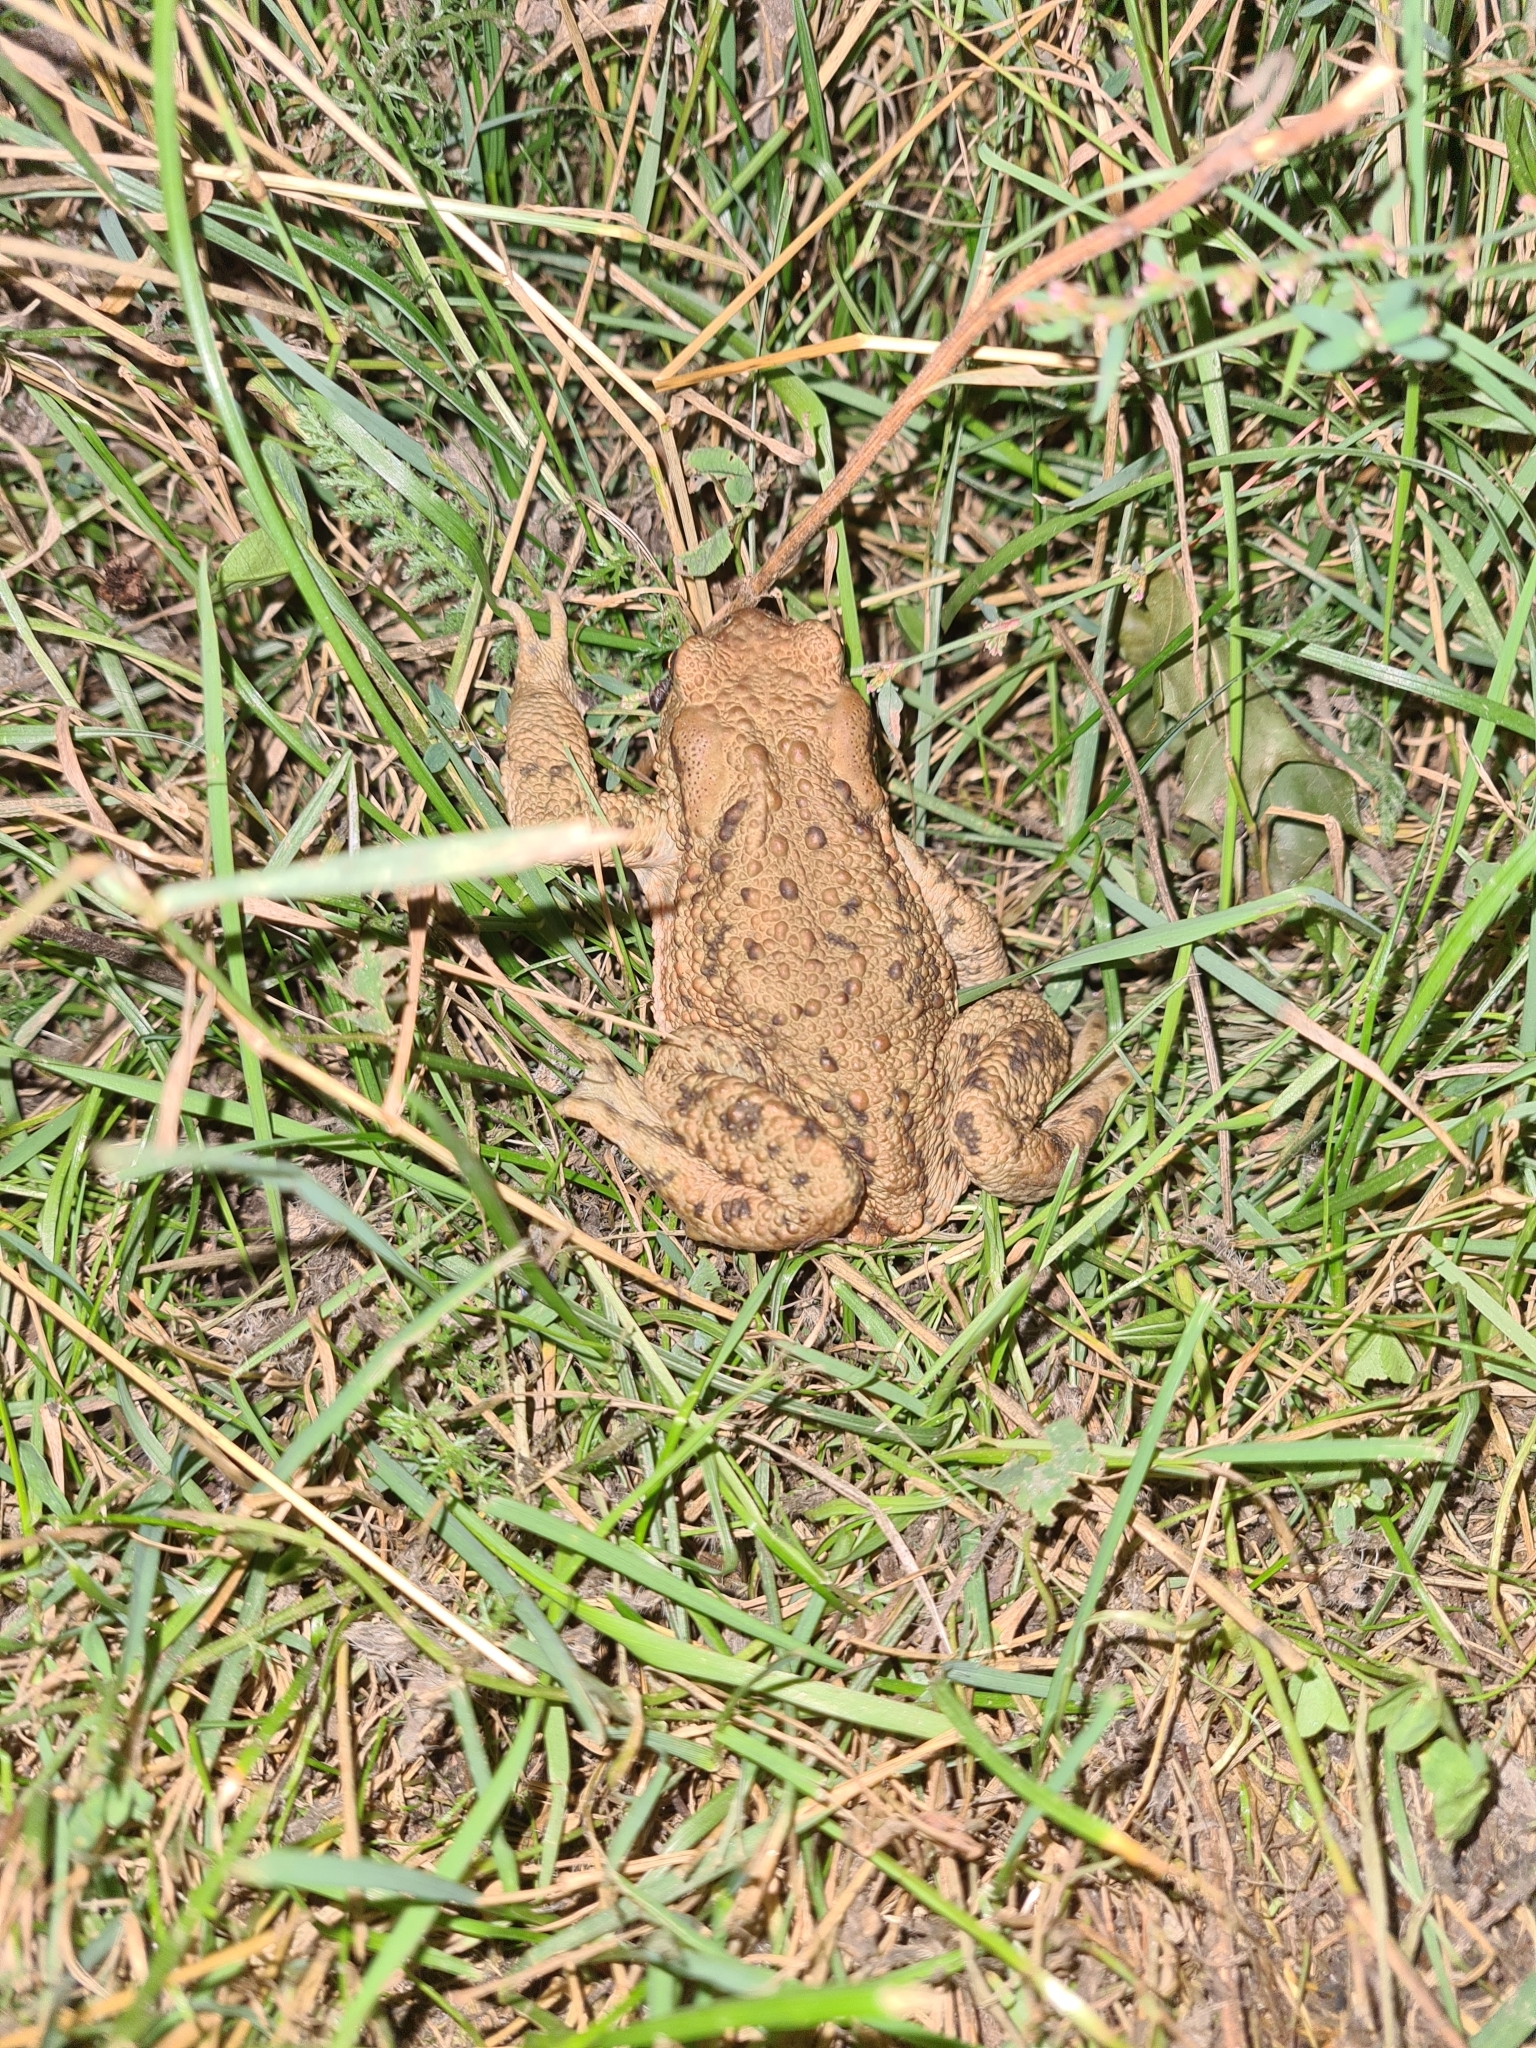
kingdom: Animalia
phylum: Chordata
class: Amphibia
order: Anura
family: Bufonidae
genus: Bufo
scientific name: Bufo bufo
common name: Common toad
